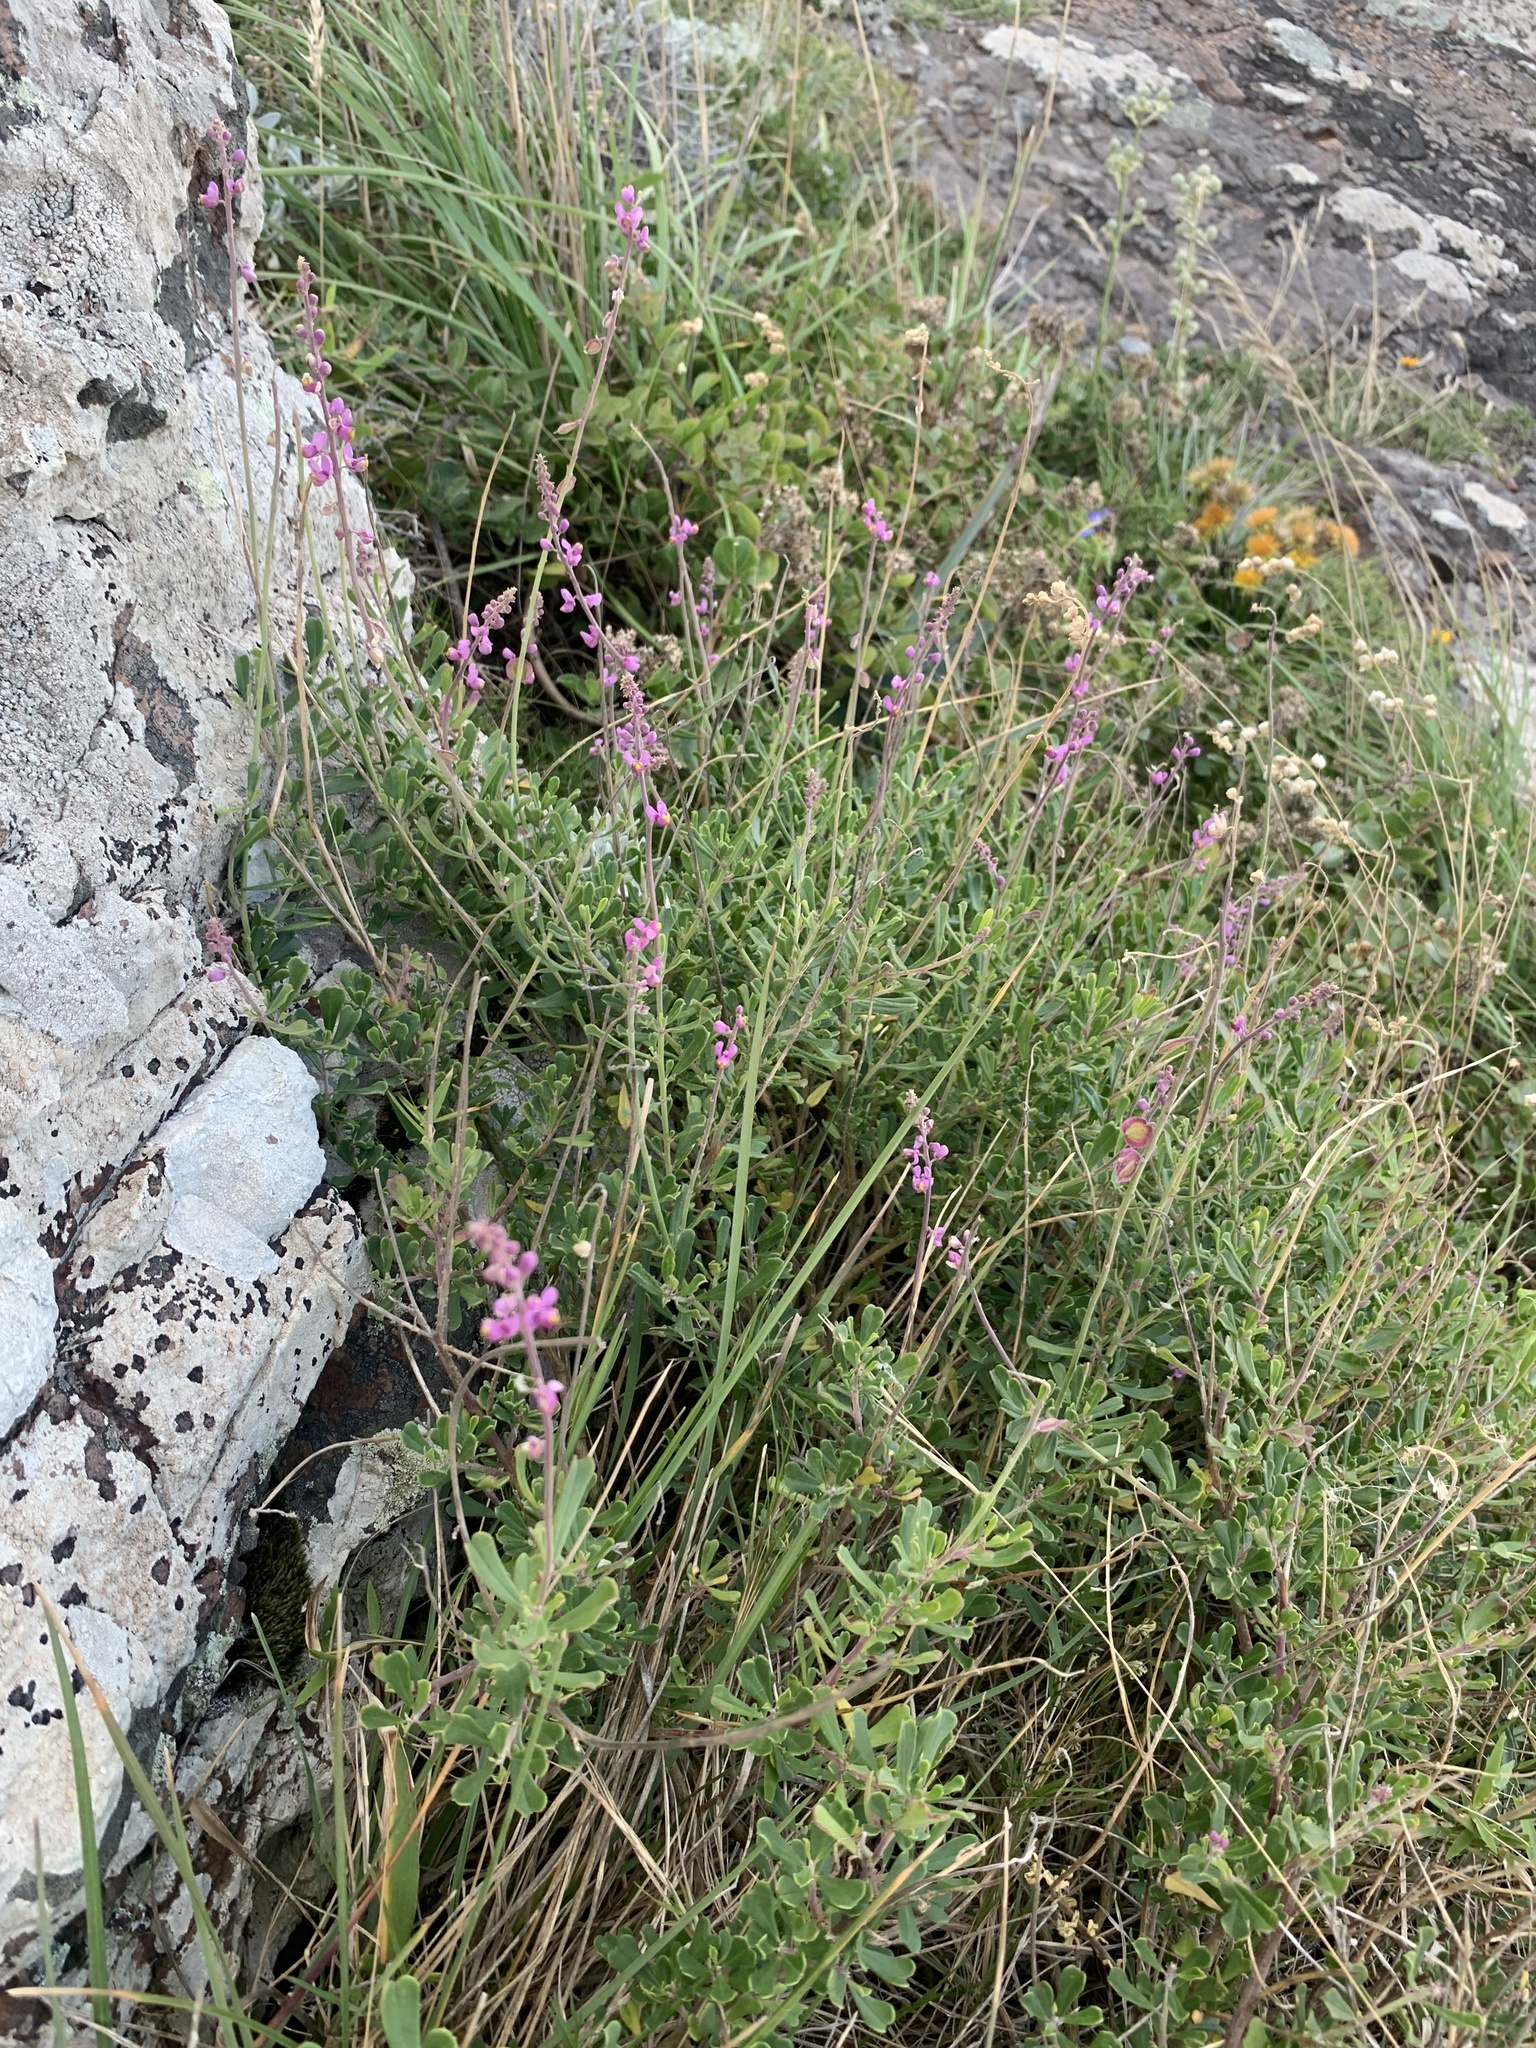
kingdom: Plantae
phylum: Tracheophyta
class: Magnoliopsida
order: Fabales
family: Polygalaceae
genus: Monnina
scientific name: Monnina cuneata
